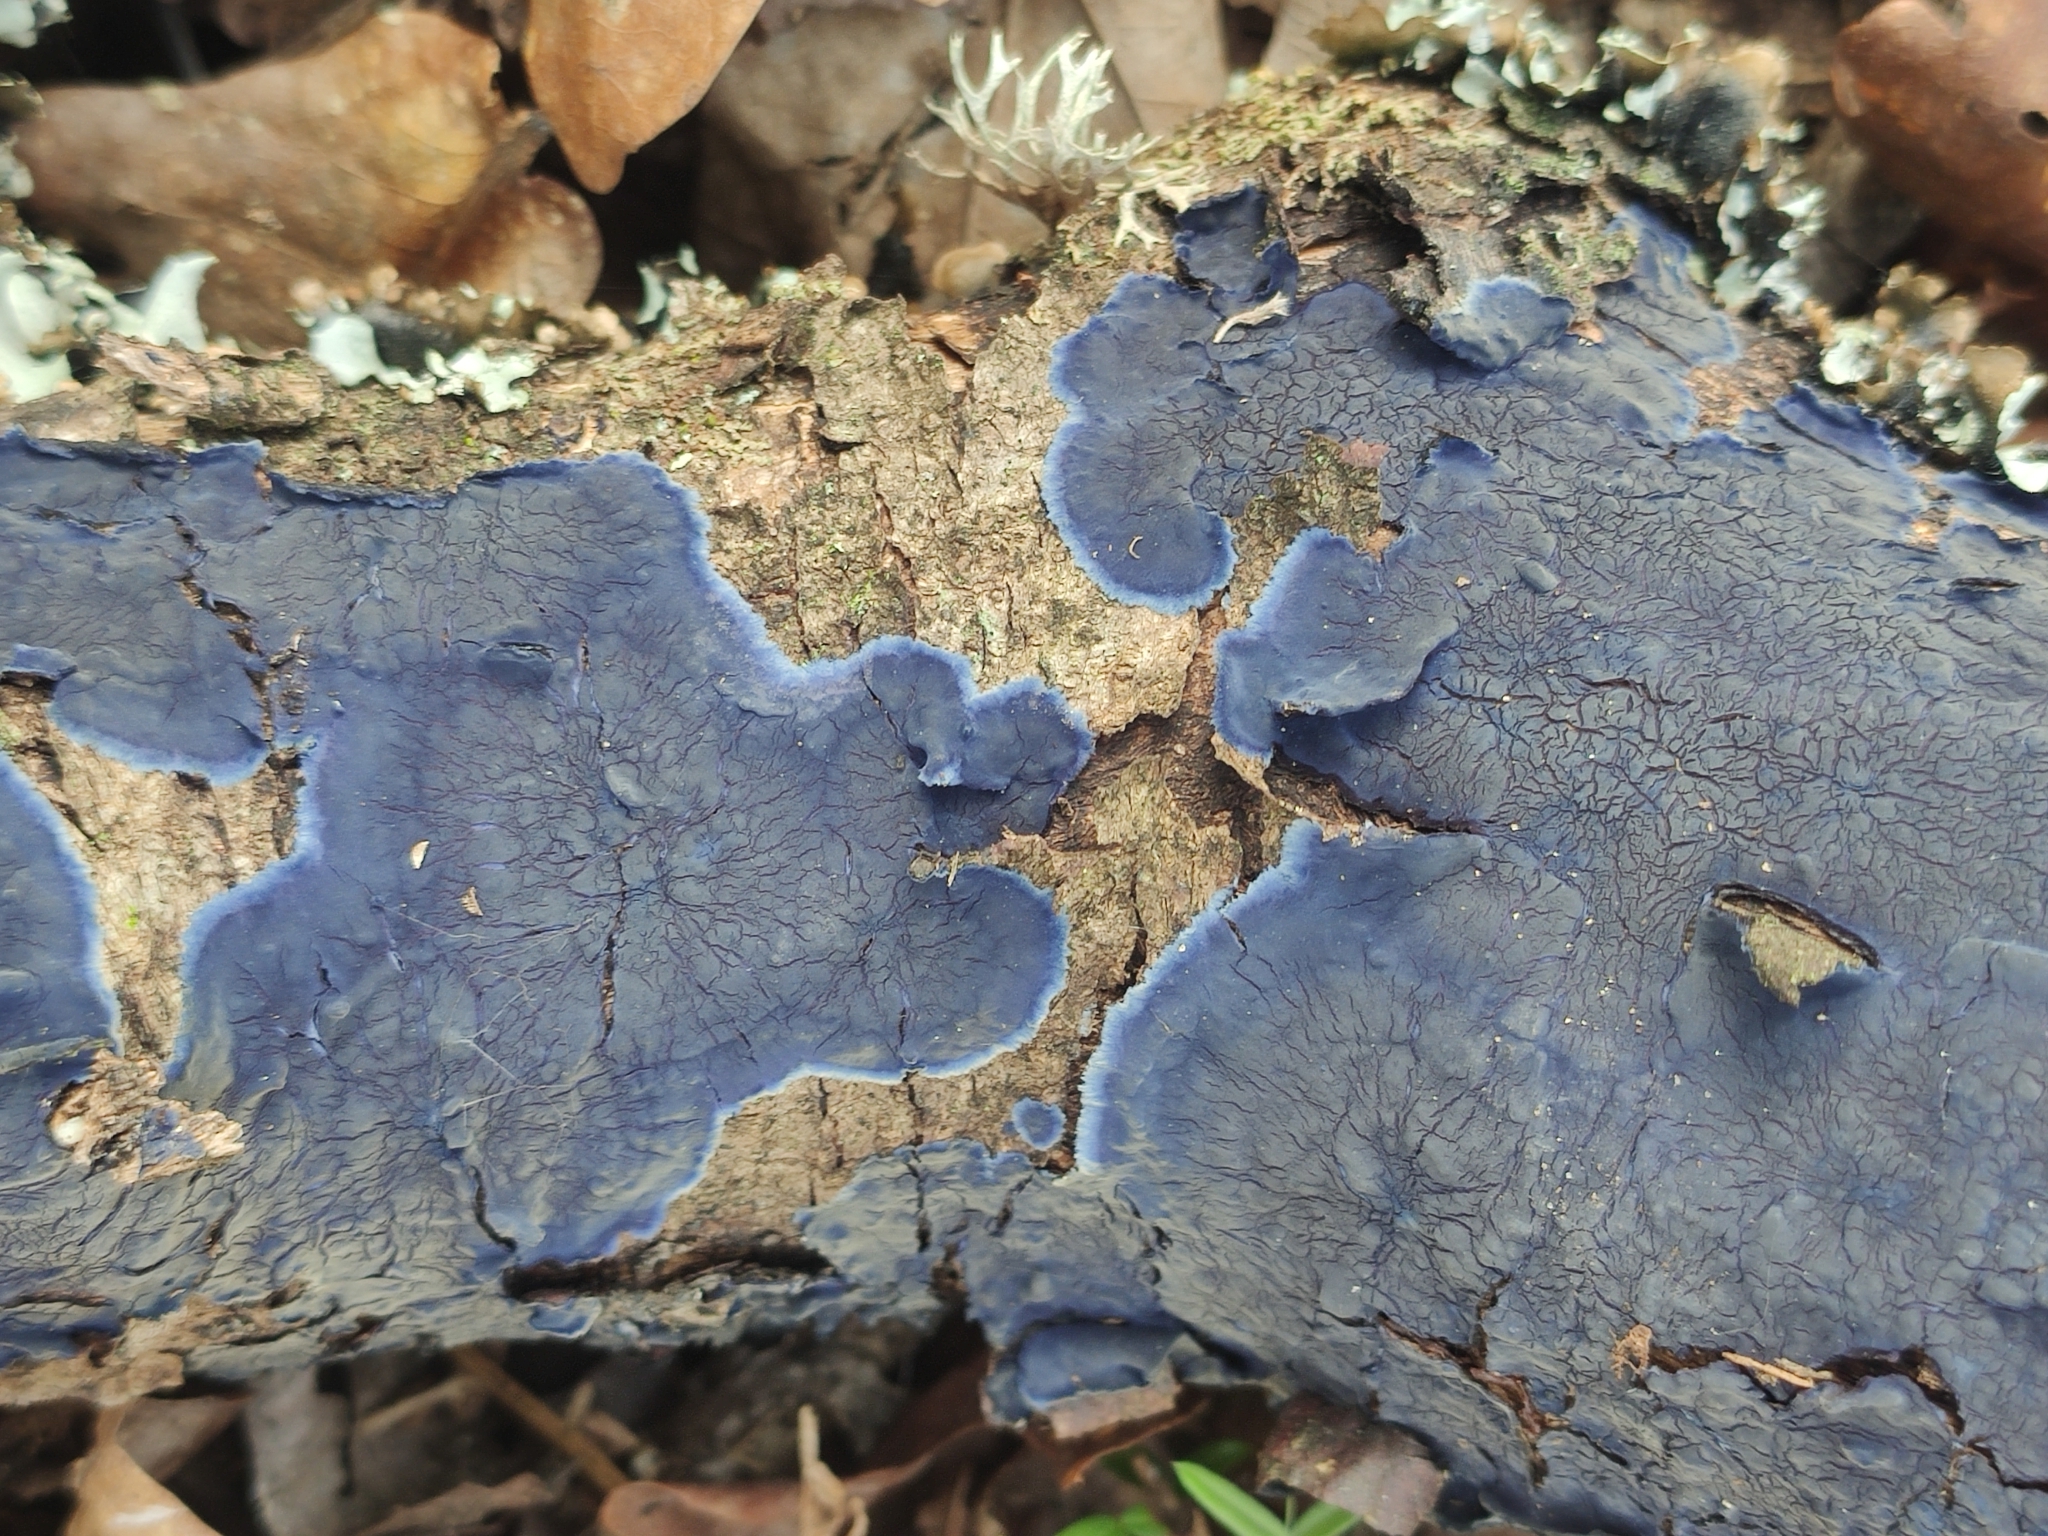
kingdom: Fungi
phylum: Basidiomycota
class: Agaricomycetes
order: Polyporales
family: Phanerochaetaceae
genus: Terana
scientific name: Terana coerulea
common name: Cobalt crust
